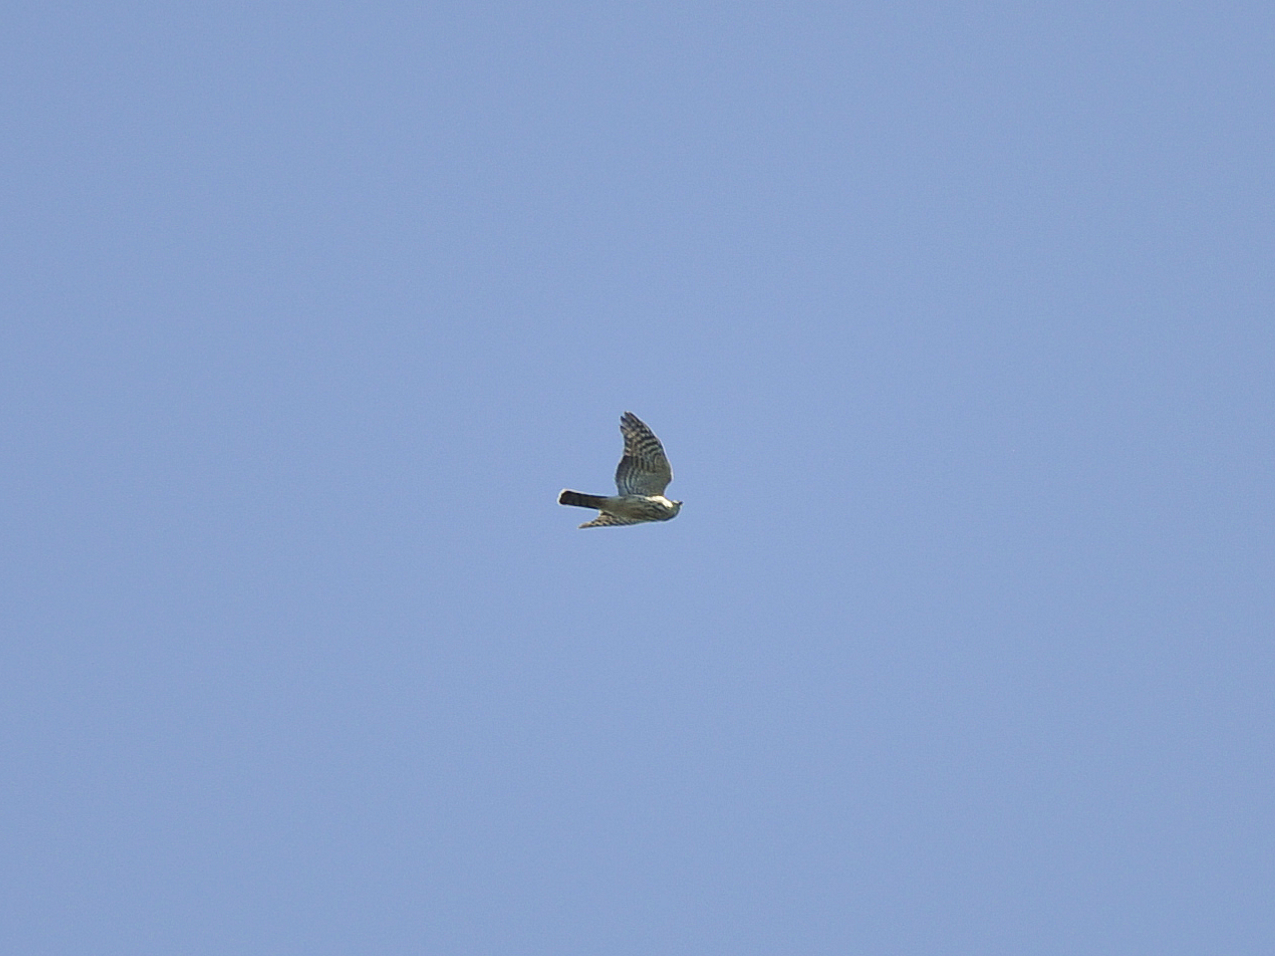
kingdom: Animalia
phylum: Chordata
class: Aves
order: Accipitriformes
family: Accipitridae
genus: Accipiter
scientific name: Accipiter striatus
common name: Sharp-shinned hawk
